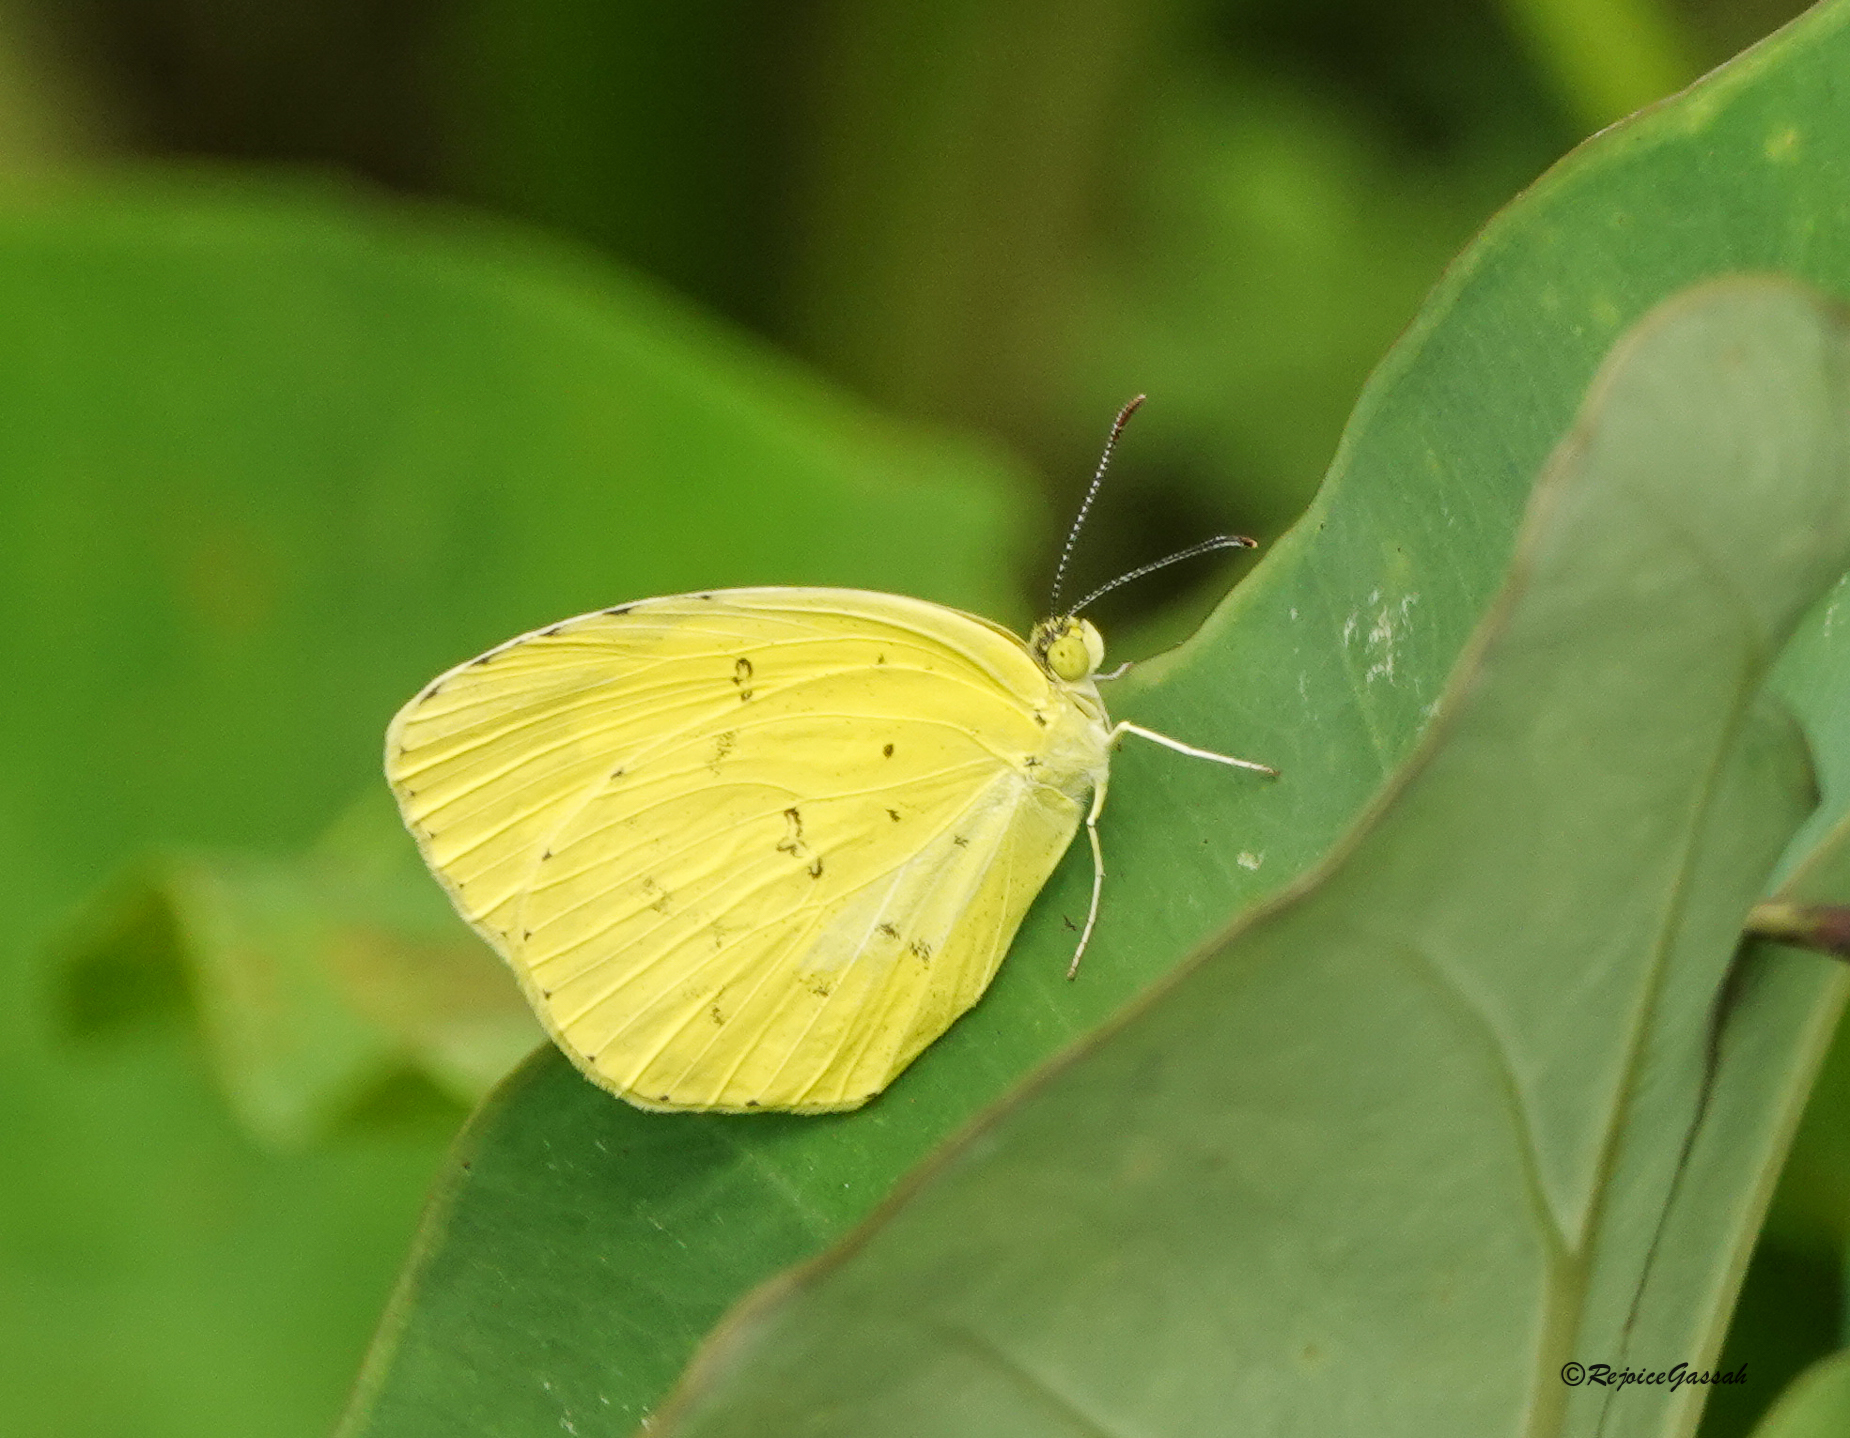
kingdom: Animalia
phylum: Arthropoda
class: Insecta
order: Lepidoptera
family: Pieridae
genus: Eurema
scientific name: Eurema hecabe
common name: Pale grass yellow
